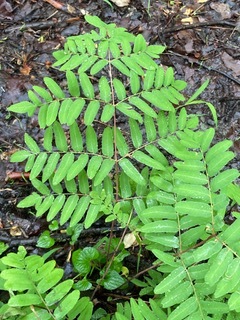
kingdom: Plantae
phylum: Tracheophyta
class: Polypodiopsida
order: Osmundales
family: Osmundaceae
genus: Osmunda
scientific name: Osmunda spectabilis
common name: American royal fern
